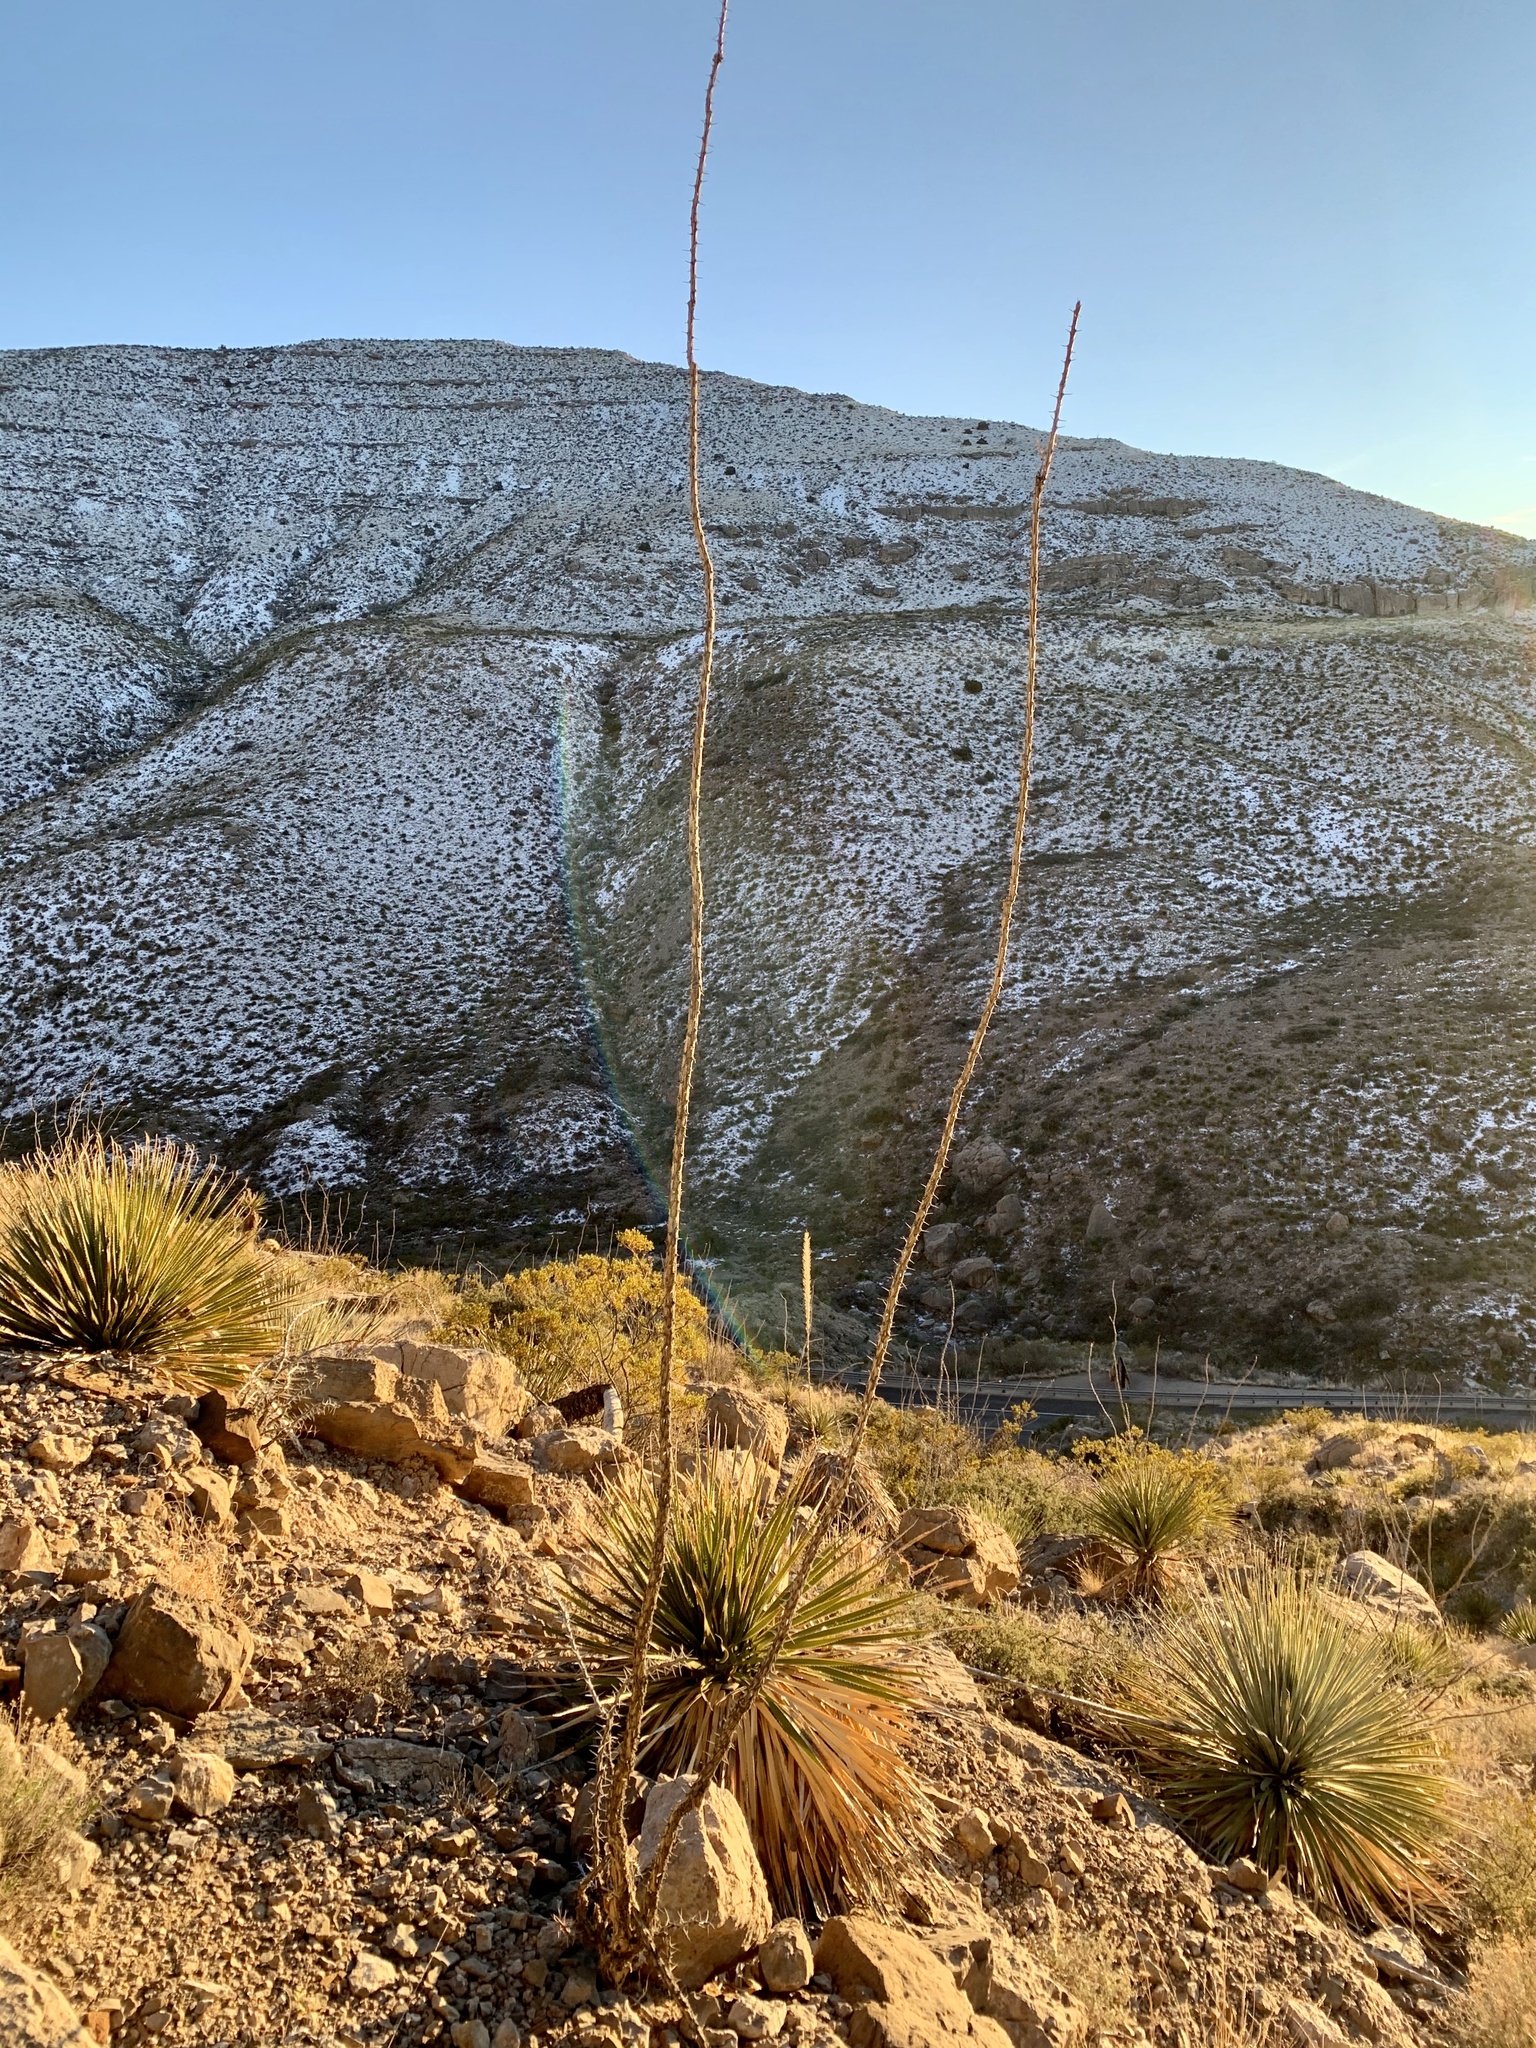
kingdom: Plantae
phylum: Tracheophyta
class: Magnoliopsida
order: Ericales
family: Fouquieriaceae
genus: Fouquieria
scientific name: Fouquieria splendens
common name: Vine-cactus
